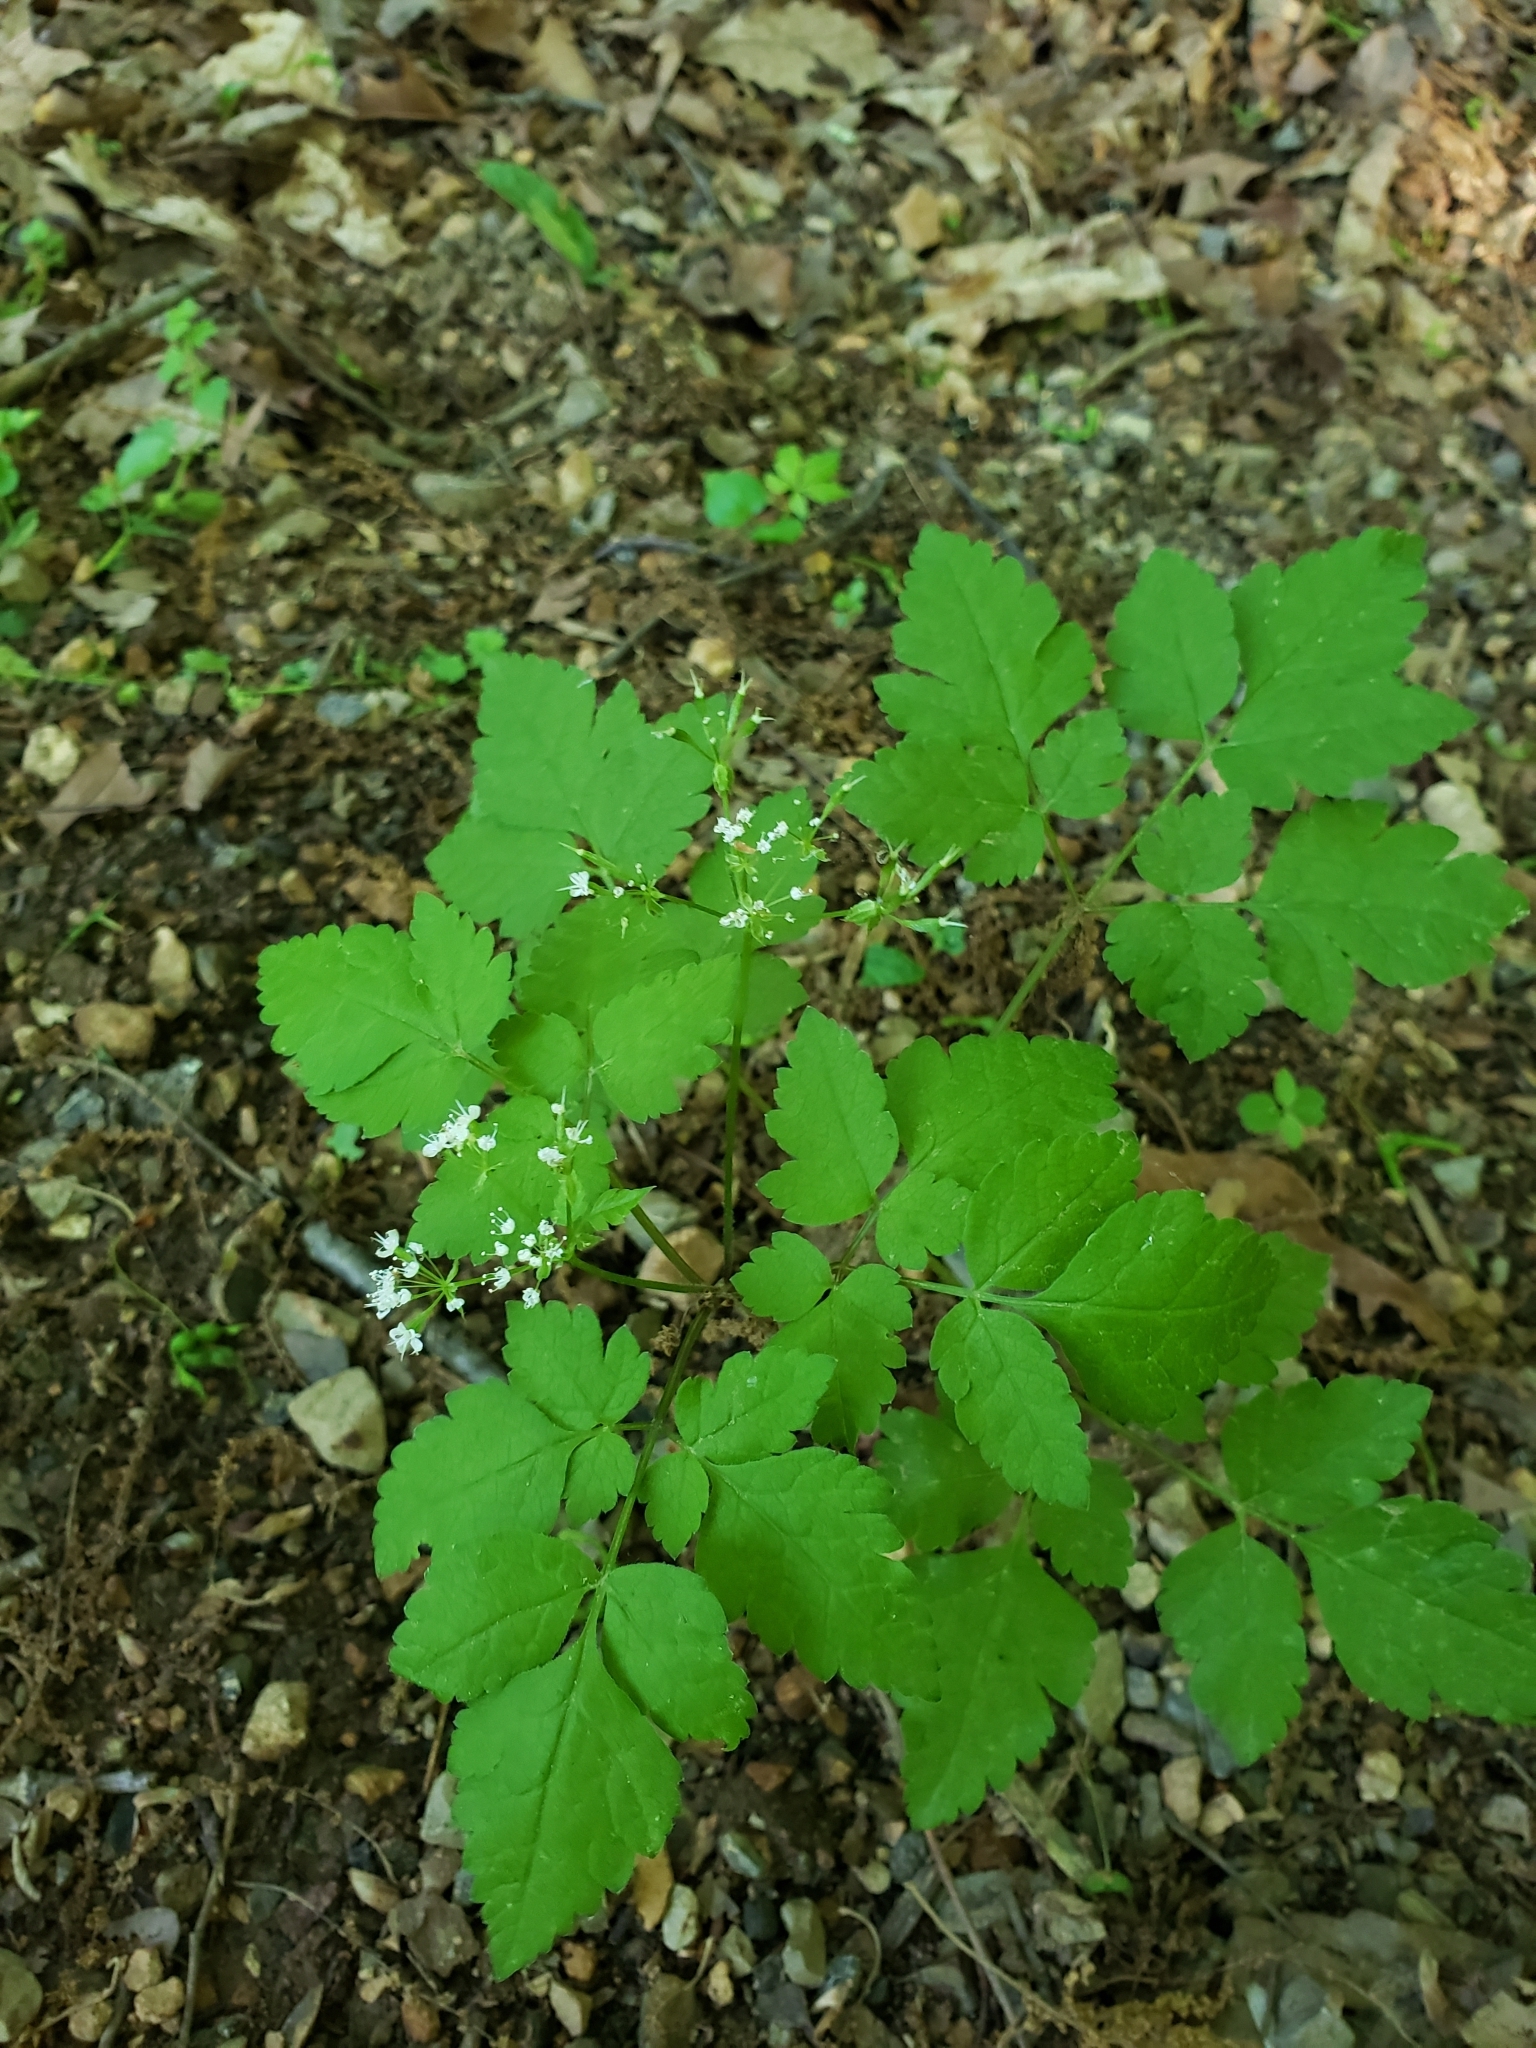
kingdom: Plantae
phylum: Tracheophyta
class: Magnoliopsida
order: Apiales
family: Apiaceae
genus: Osmorhiza
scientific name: Osmorhiza longistylis
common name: Smooth sweet cicely
